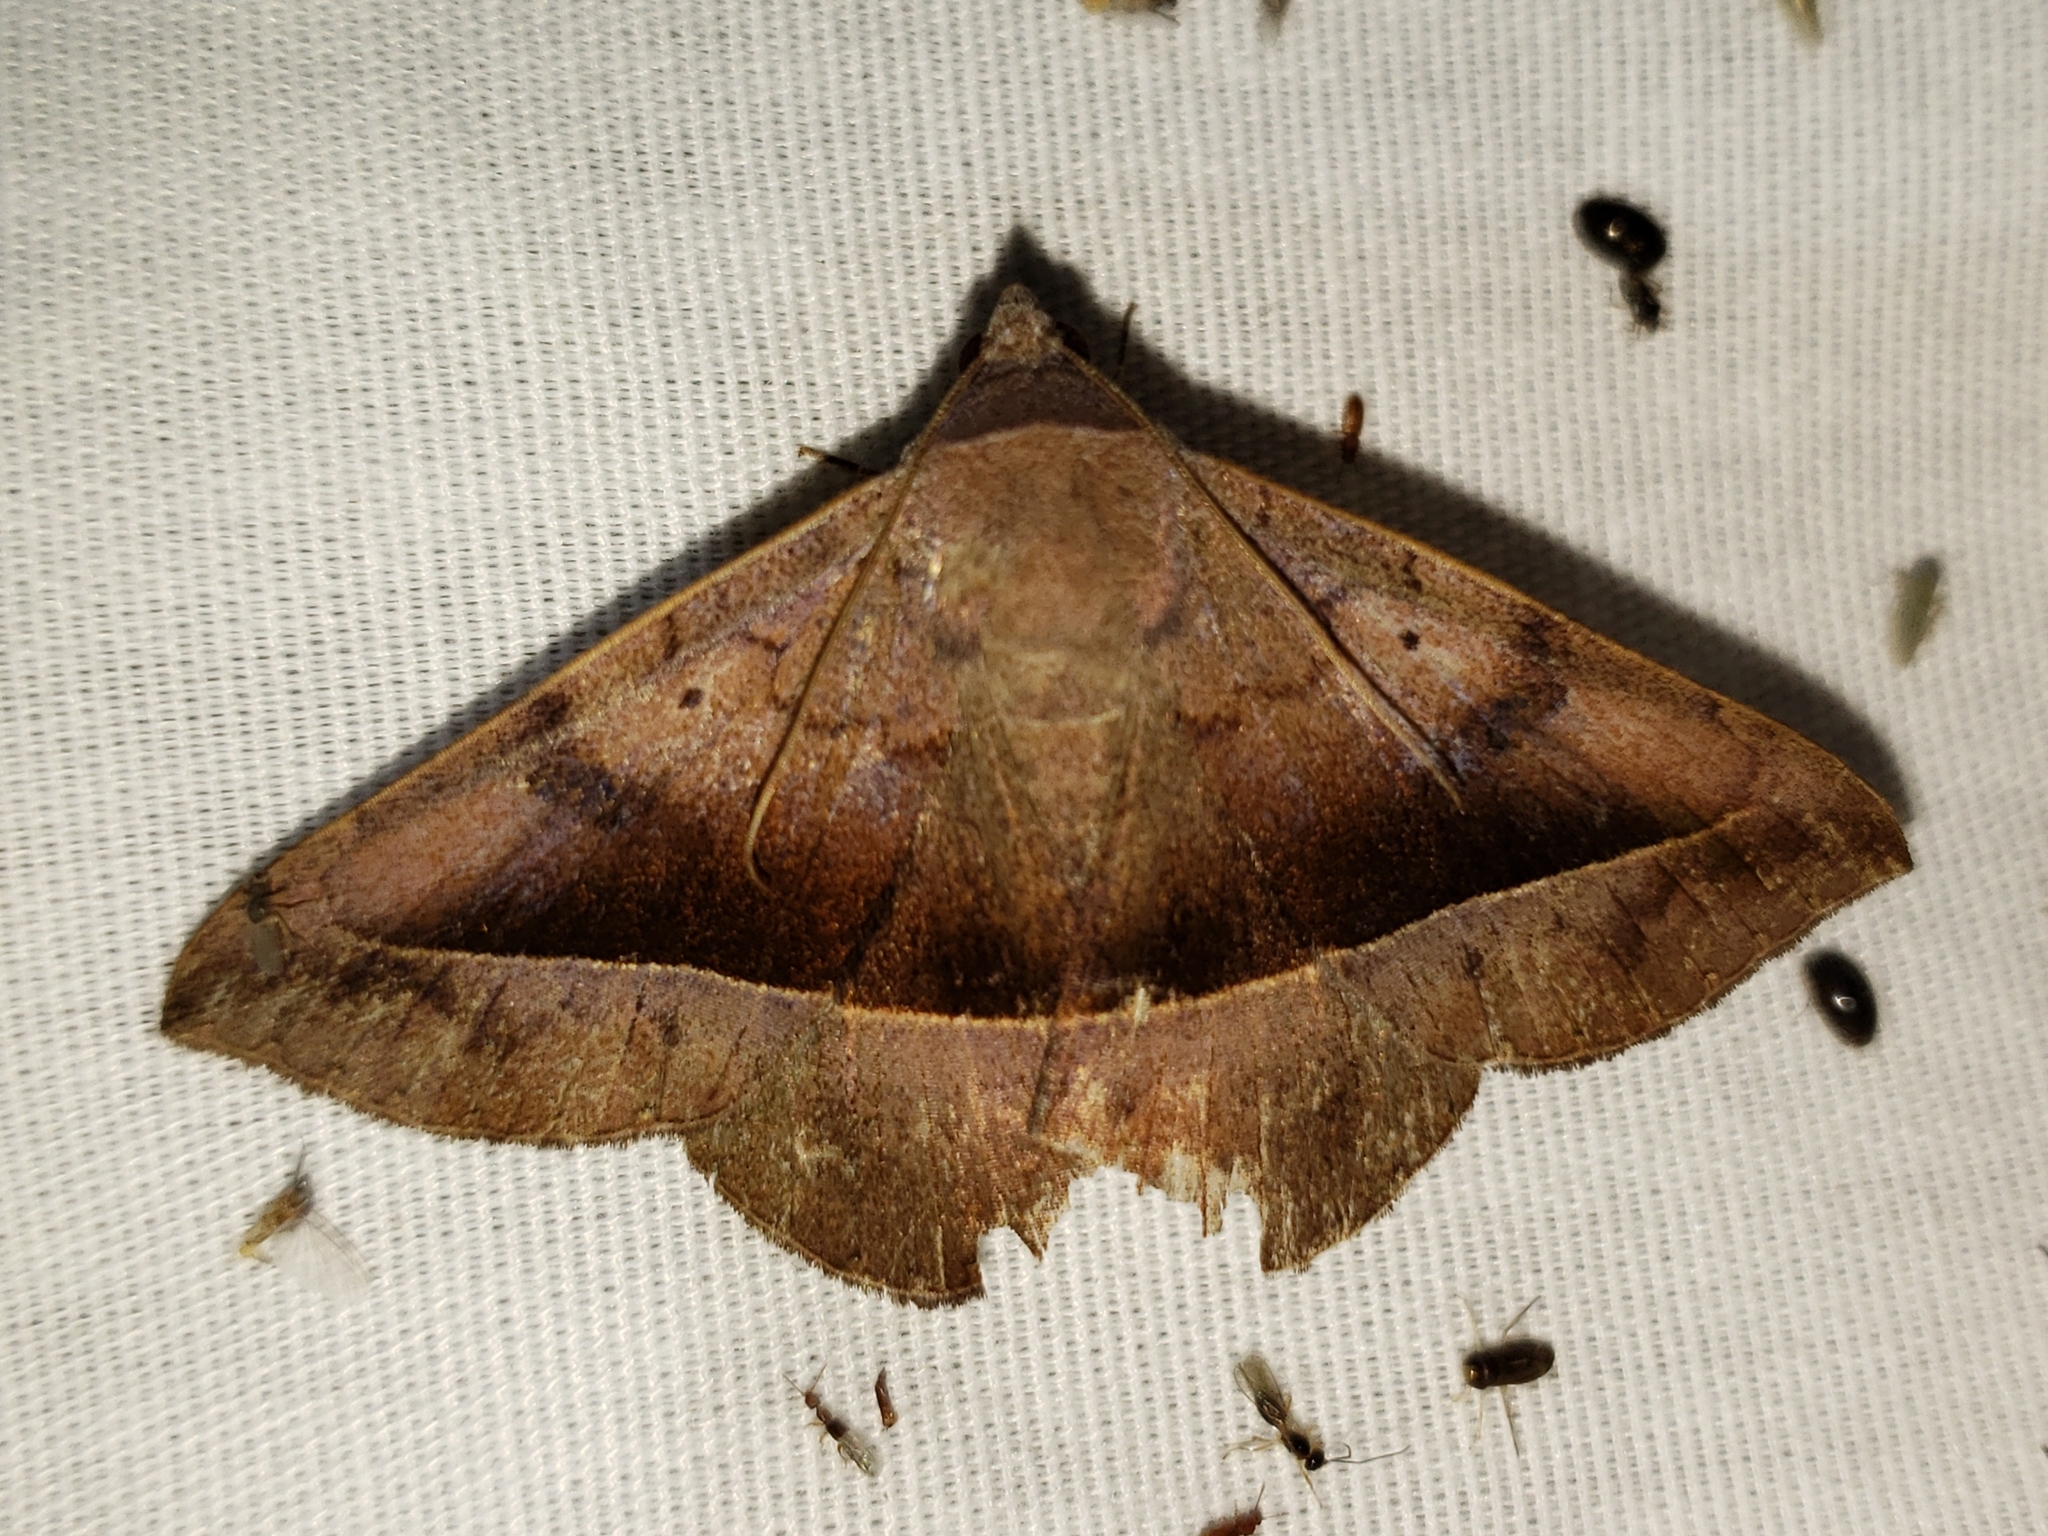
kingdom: Animalia
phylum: Arthropoda
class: Insecta
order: Lepidoptera
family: Erebidae
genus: Epidromia
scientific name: Epidromia rotundata
